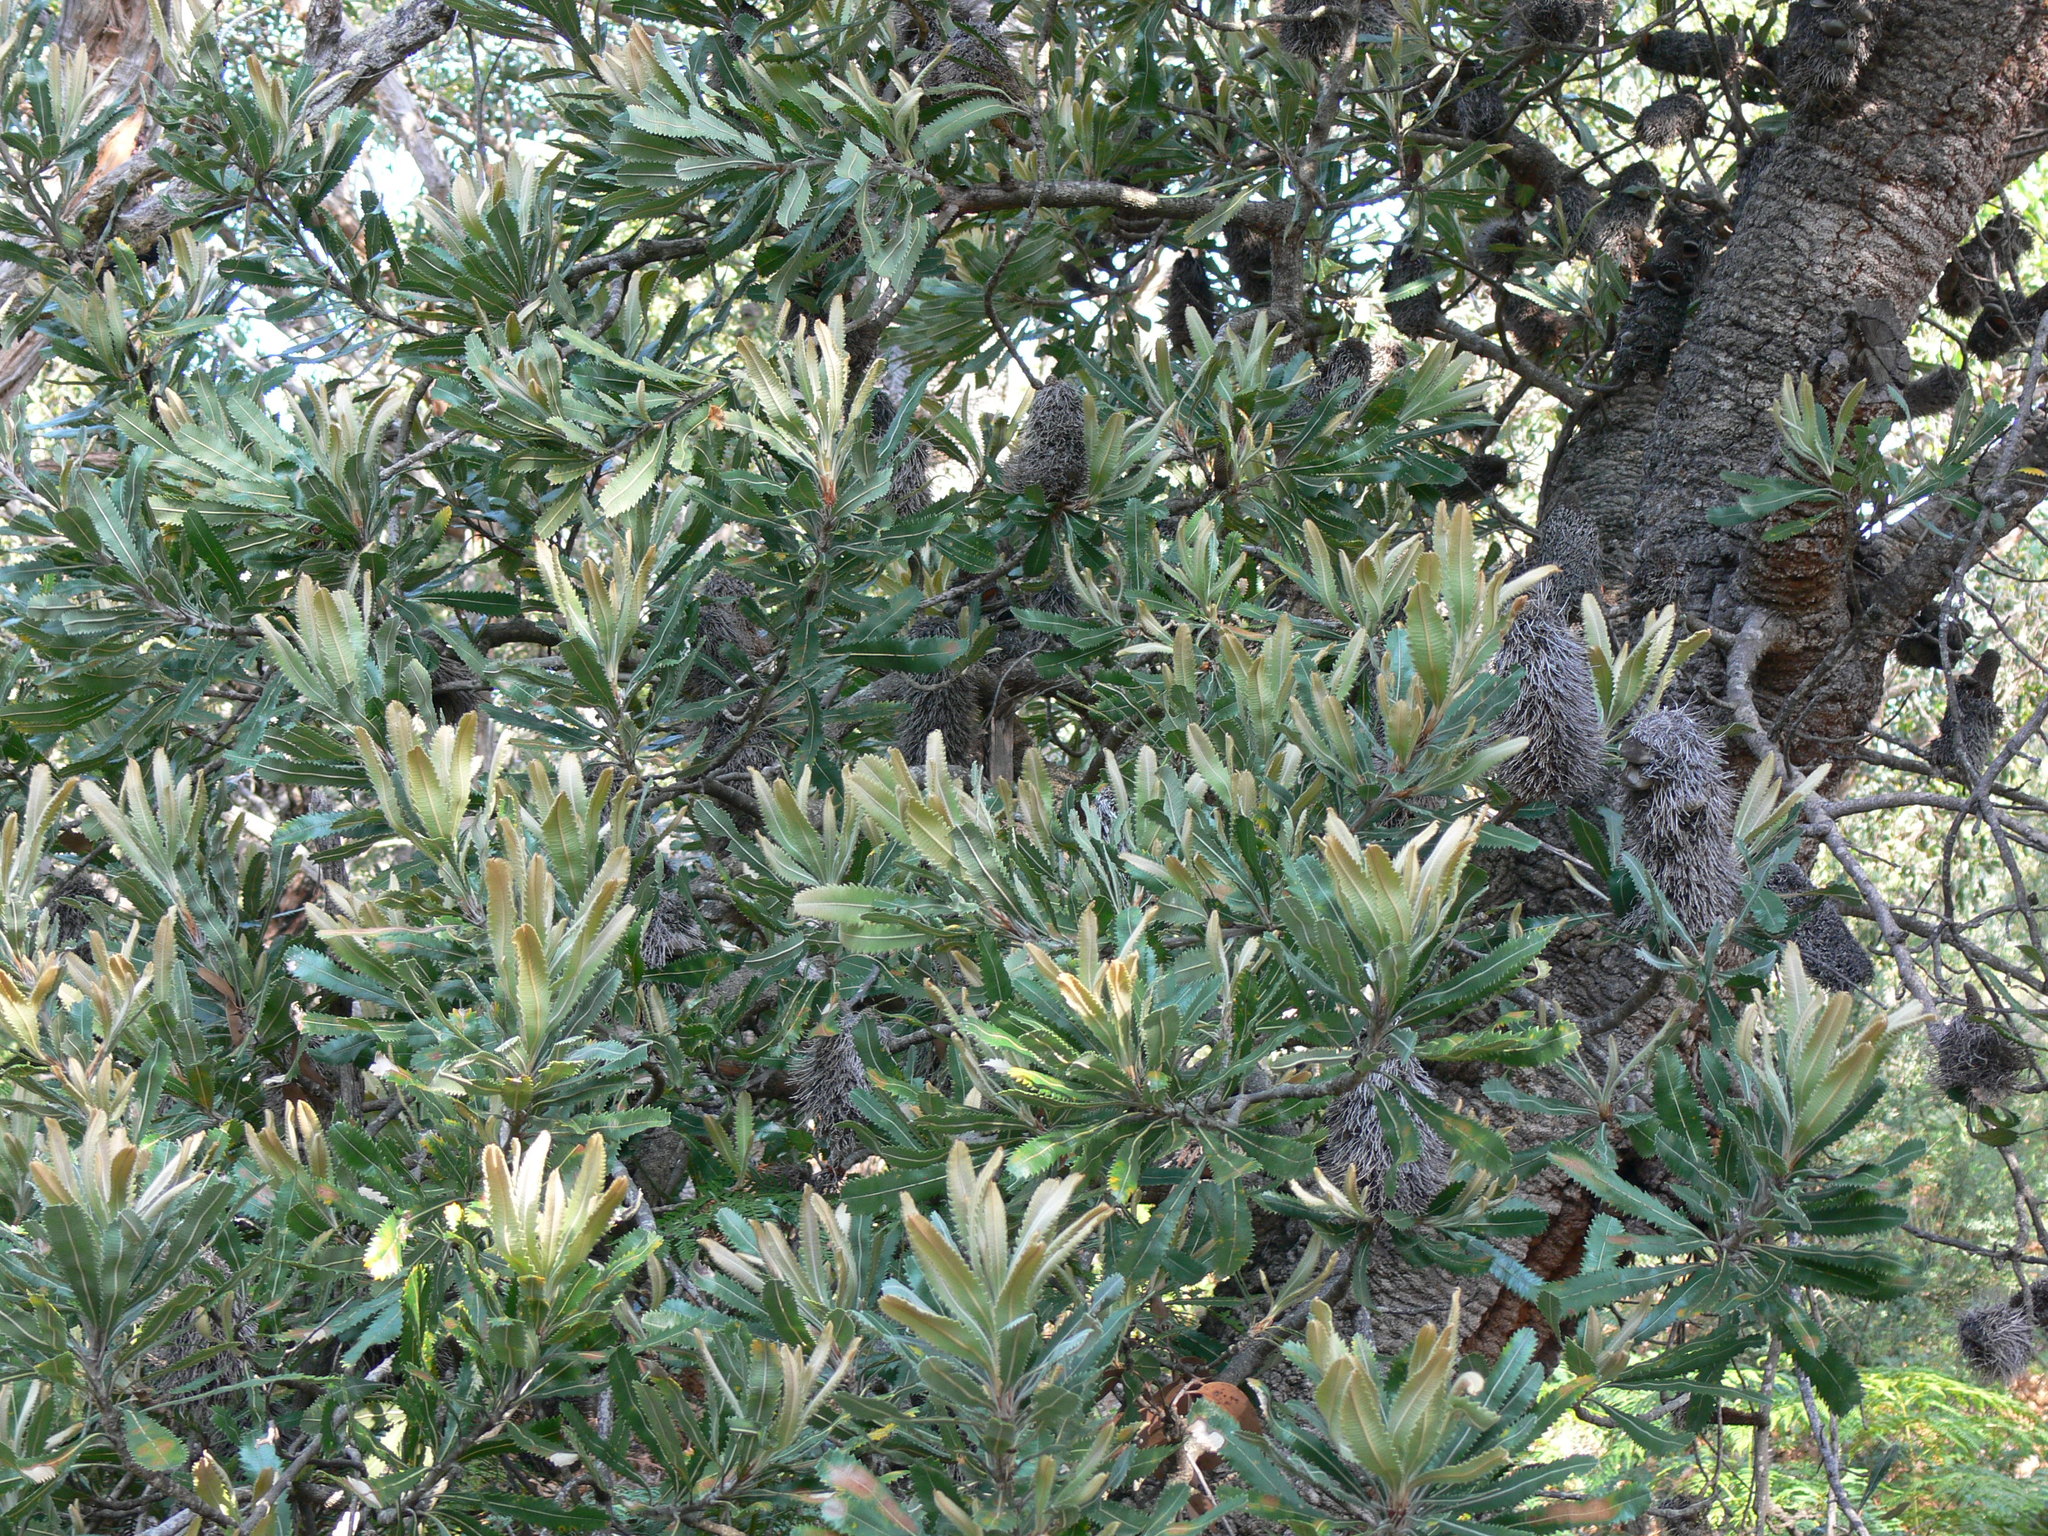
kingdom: Plantae
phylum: Tracheophyta
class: Magnoliopsida
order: Proteales
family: Proteaceae
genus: Banksia
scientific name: Banksia integrifolia
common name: White-honeysuckle
